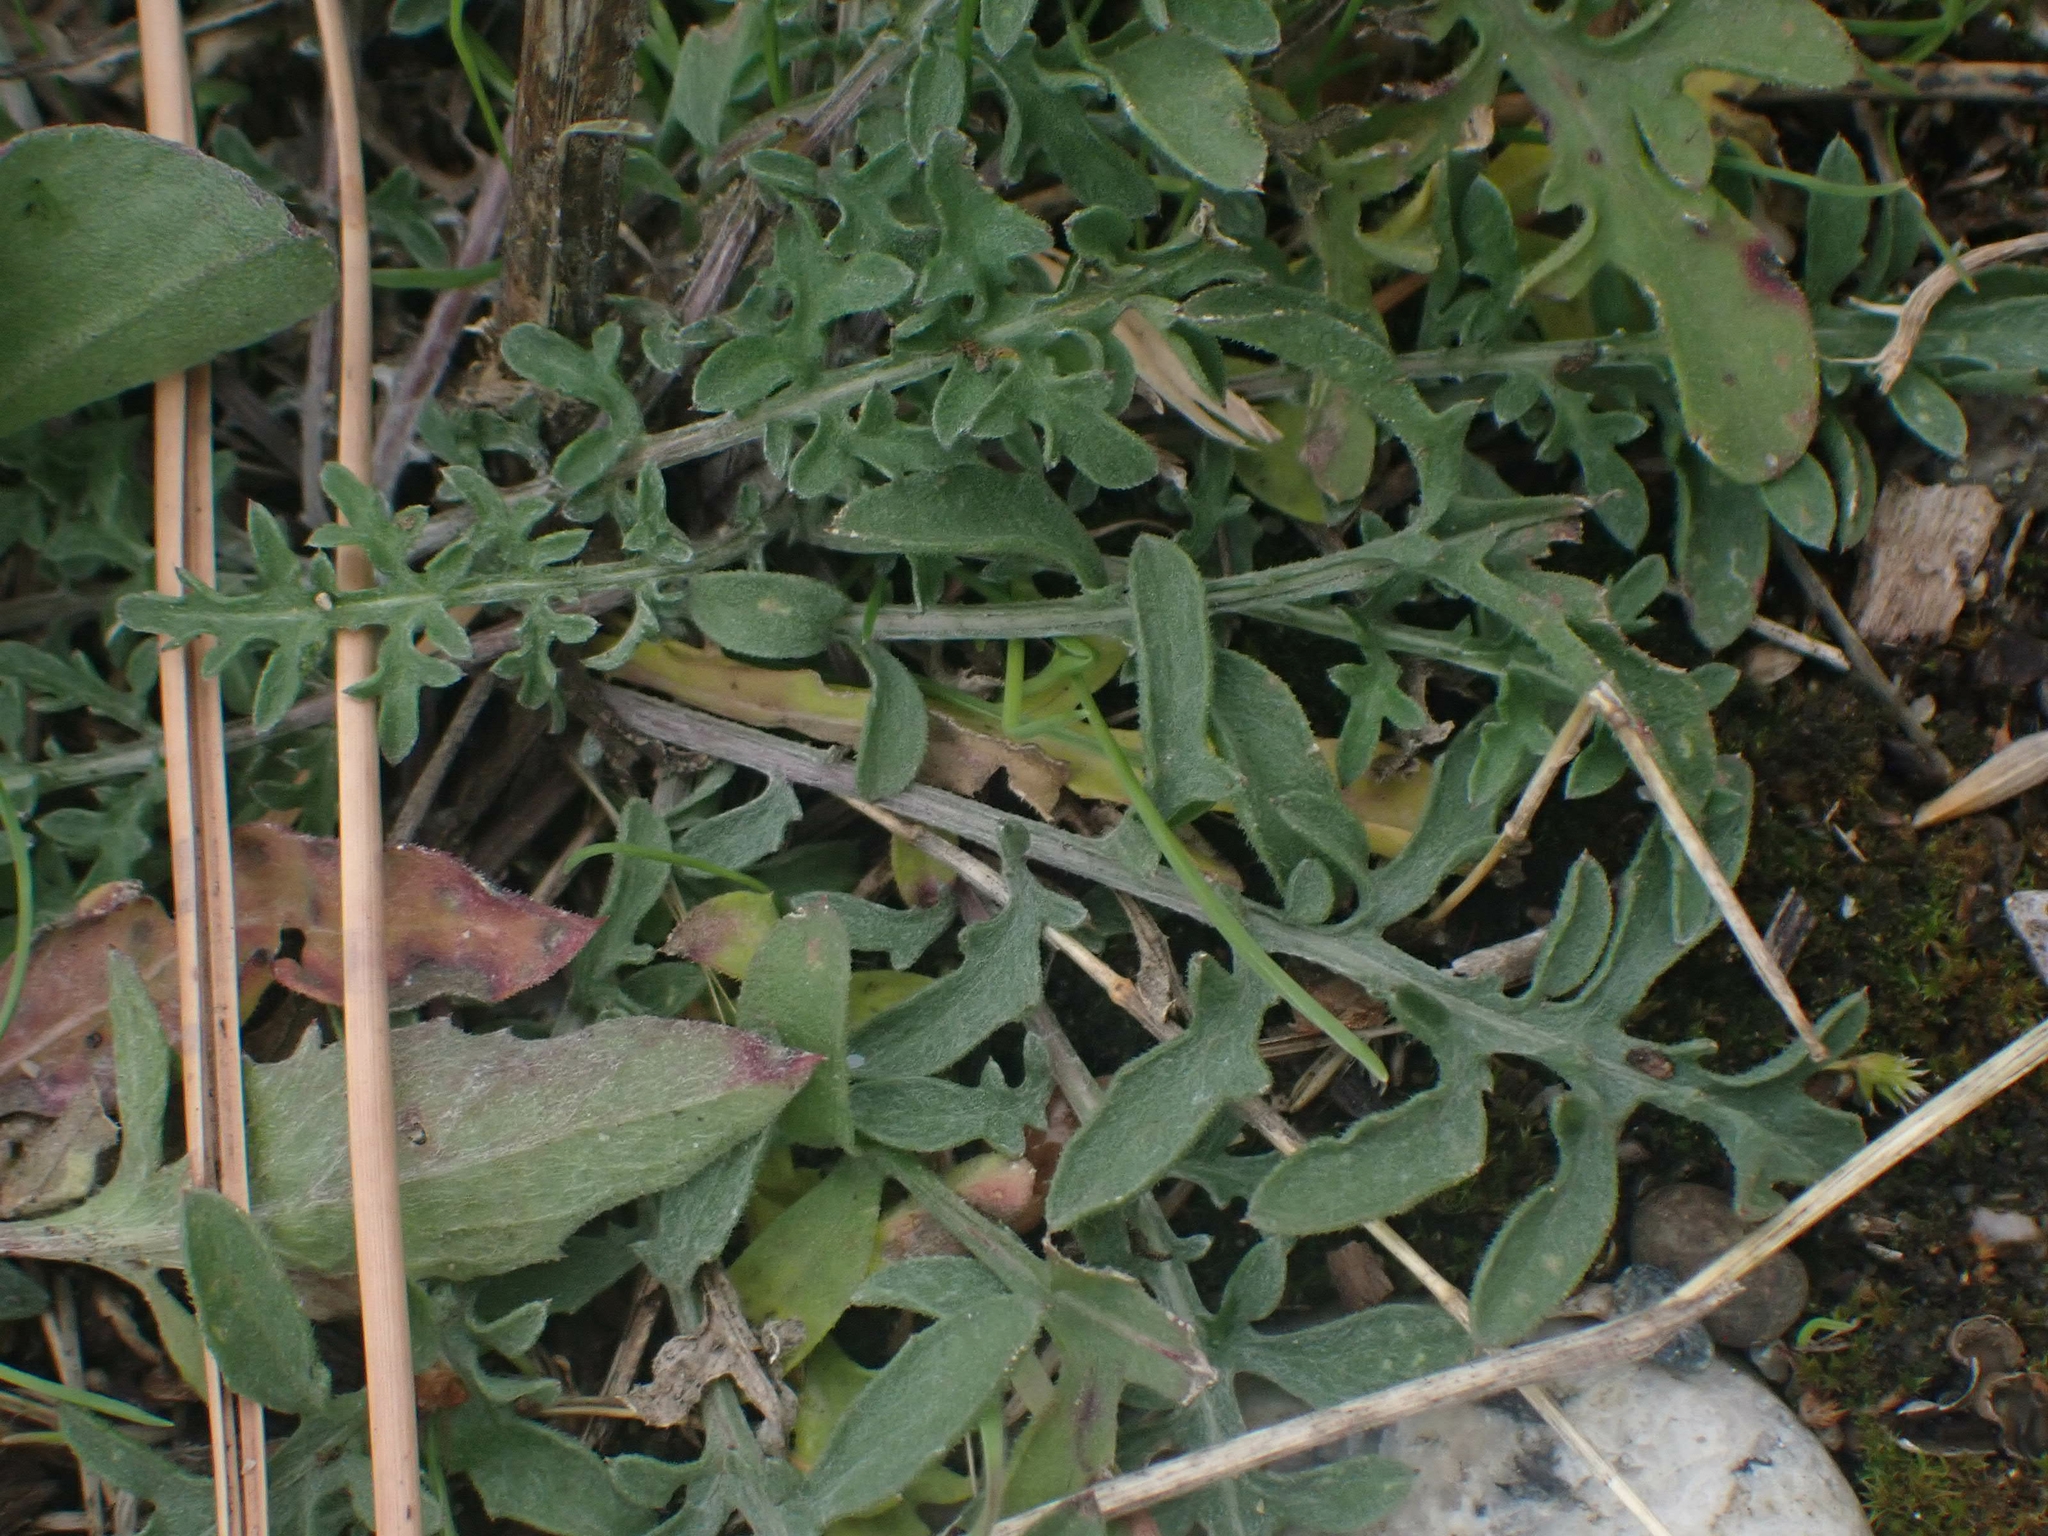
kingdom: Plantae
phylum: Tracheophyta
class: Magnoliopsida
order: Asterales
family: Asteraceae
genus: Centaurea
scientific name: Centaurea diffusa
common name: Diffuse knapweed
